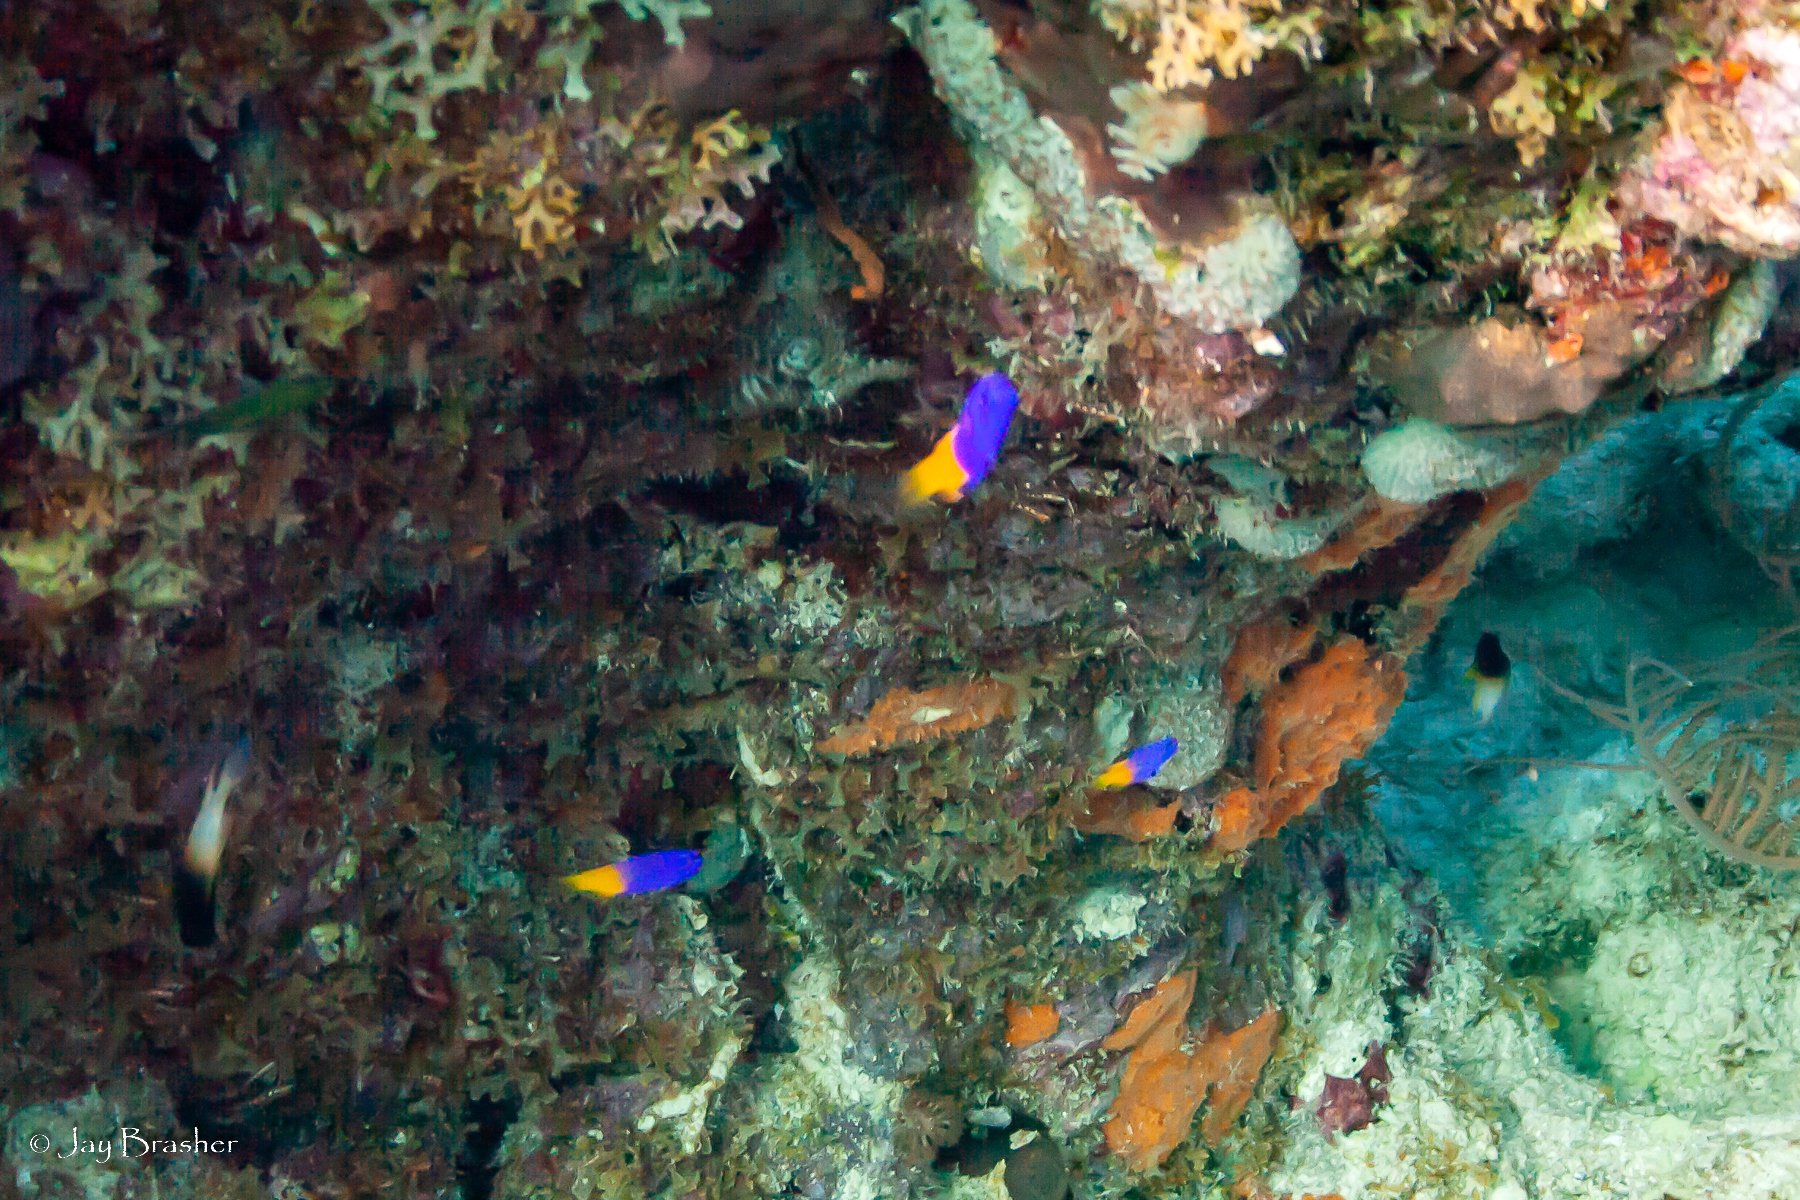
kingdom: Animalia
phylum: Chordata
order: Perciformes
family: Grammatidae
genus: Gramma
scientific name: Gramma loreto
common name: Fairy basslet
